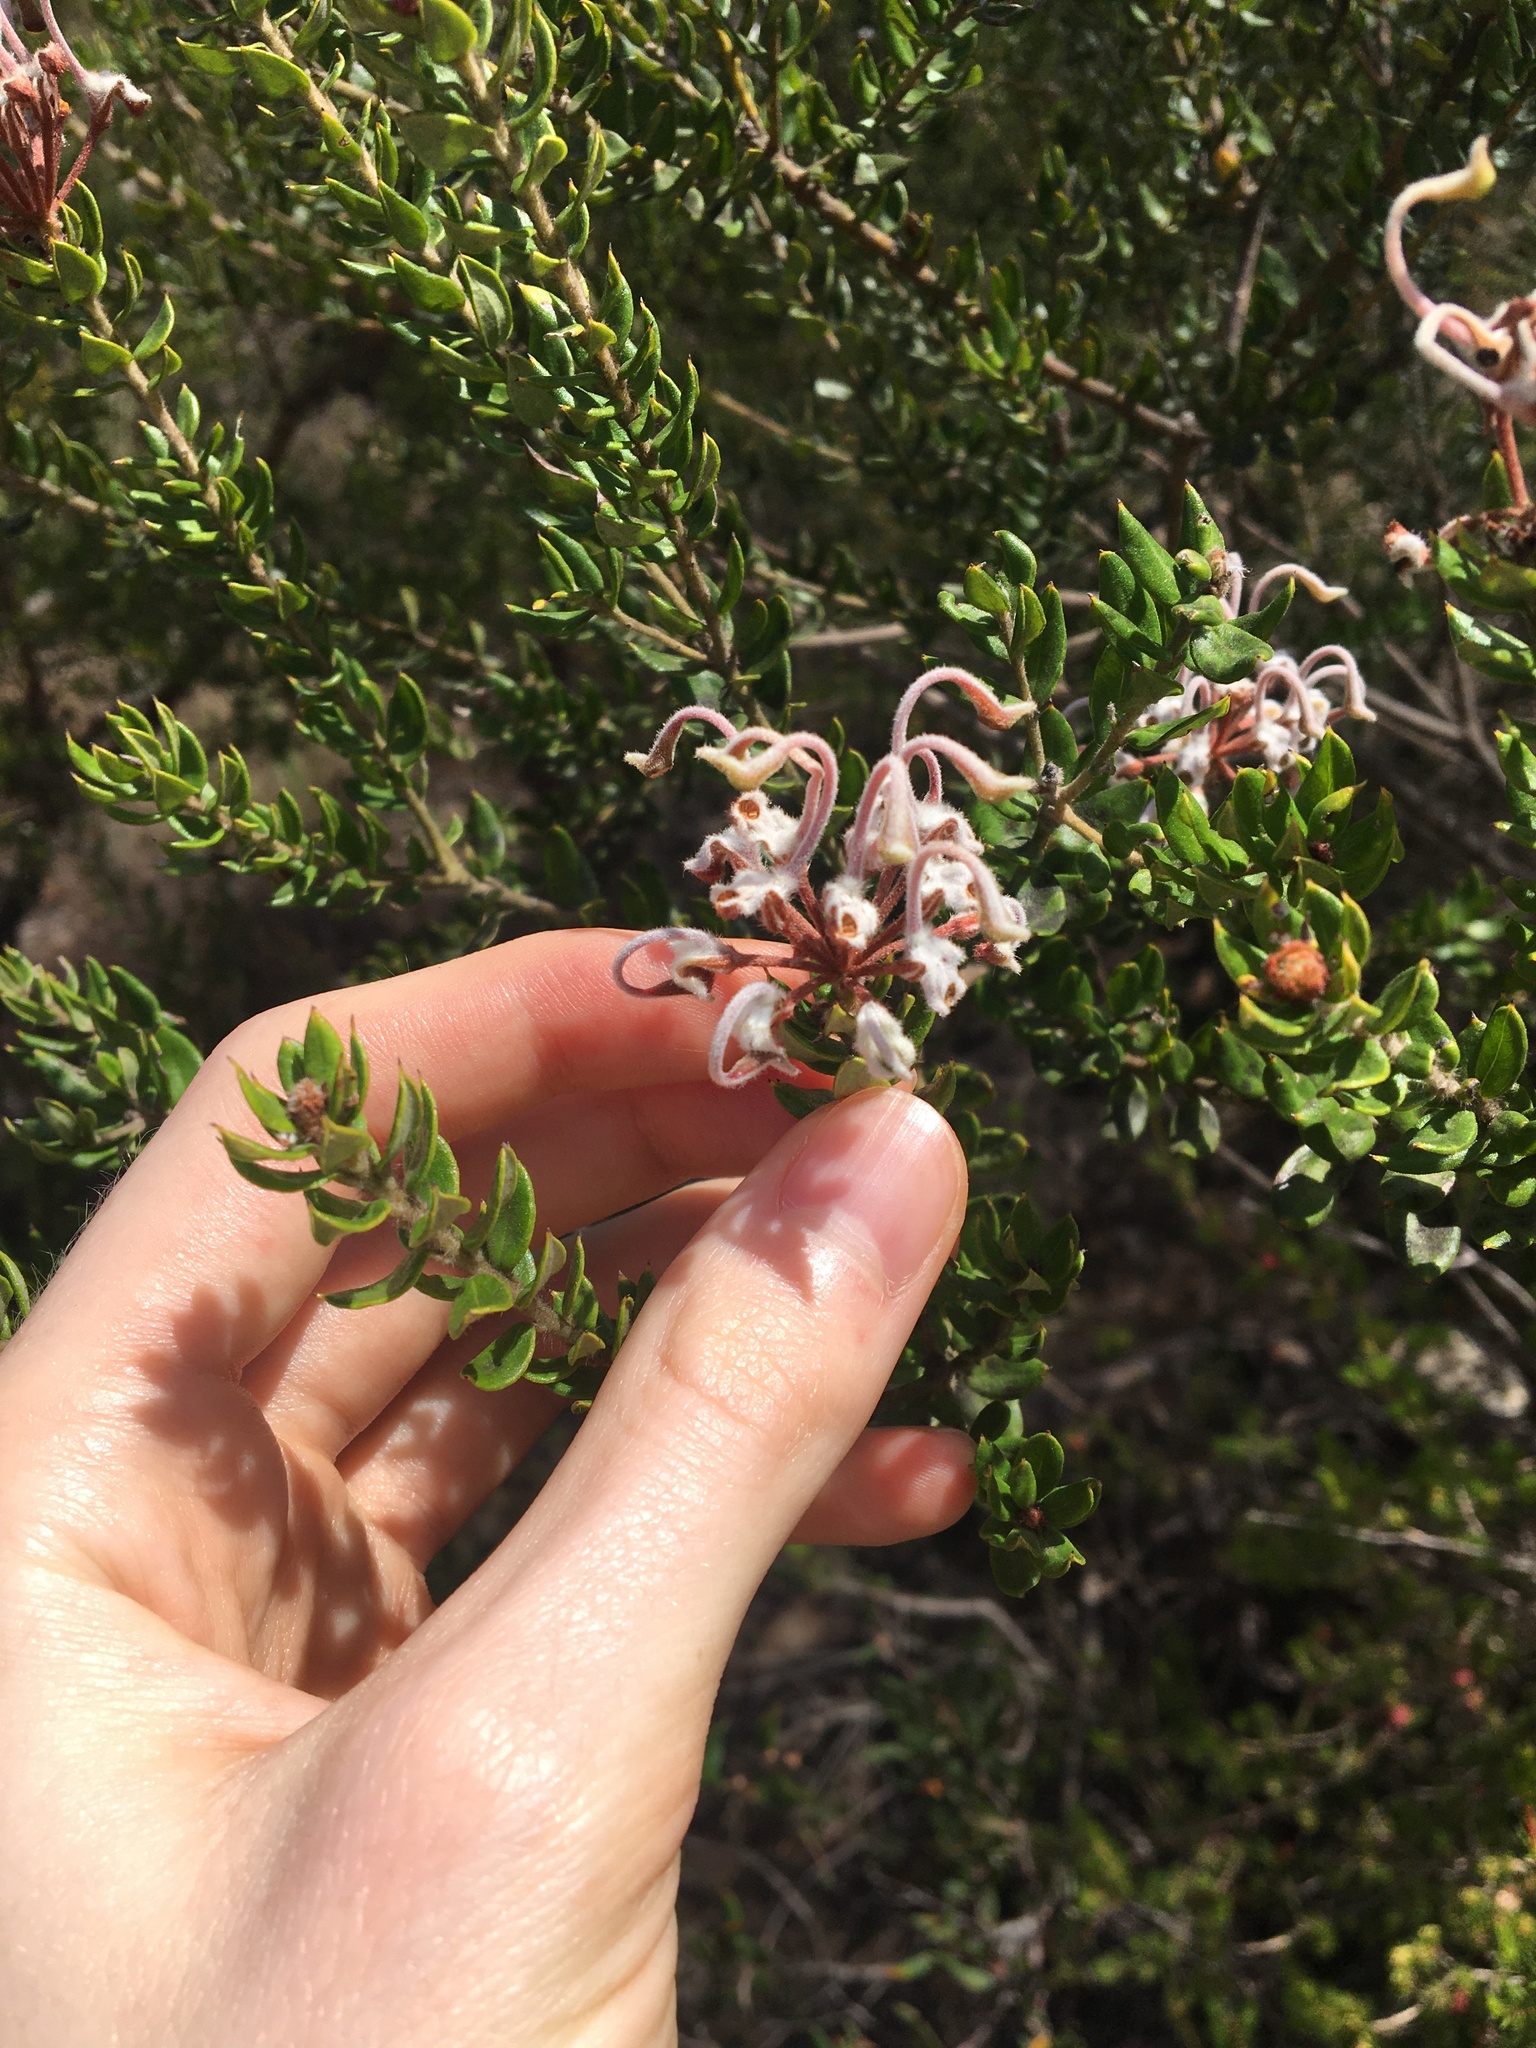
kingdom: Plantae
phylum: Tracheophyta
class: Magnoliopsida
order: Proteales
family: Proteaceae
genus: Grevillea
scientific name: Grevillea buxifolia
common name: Grey spiderflower
